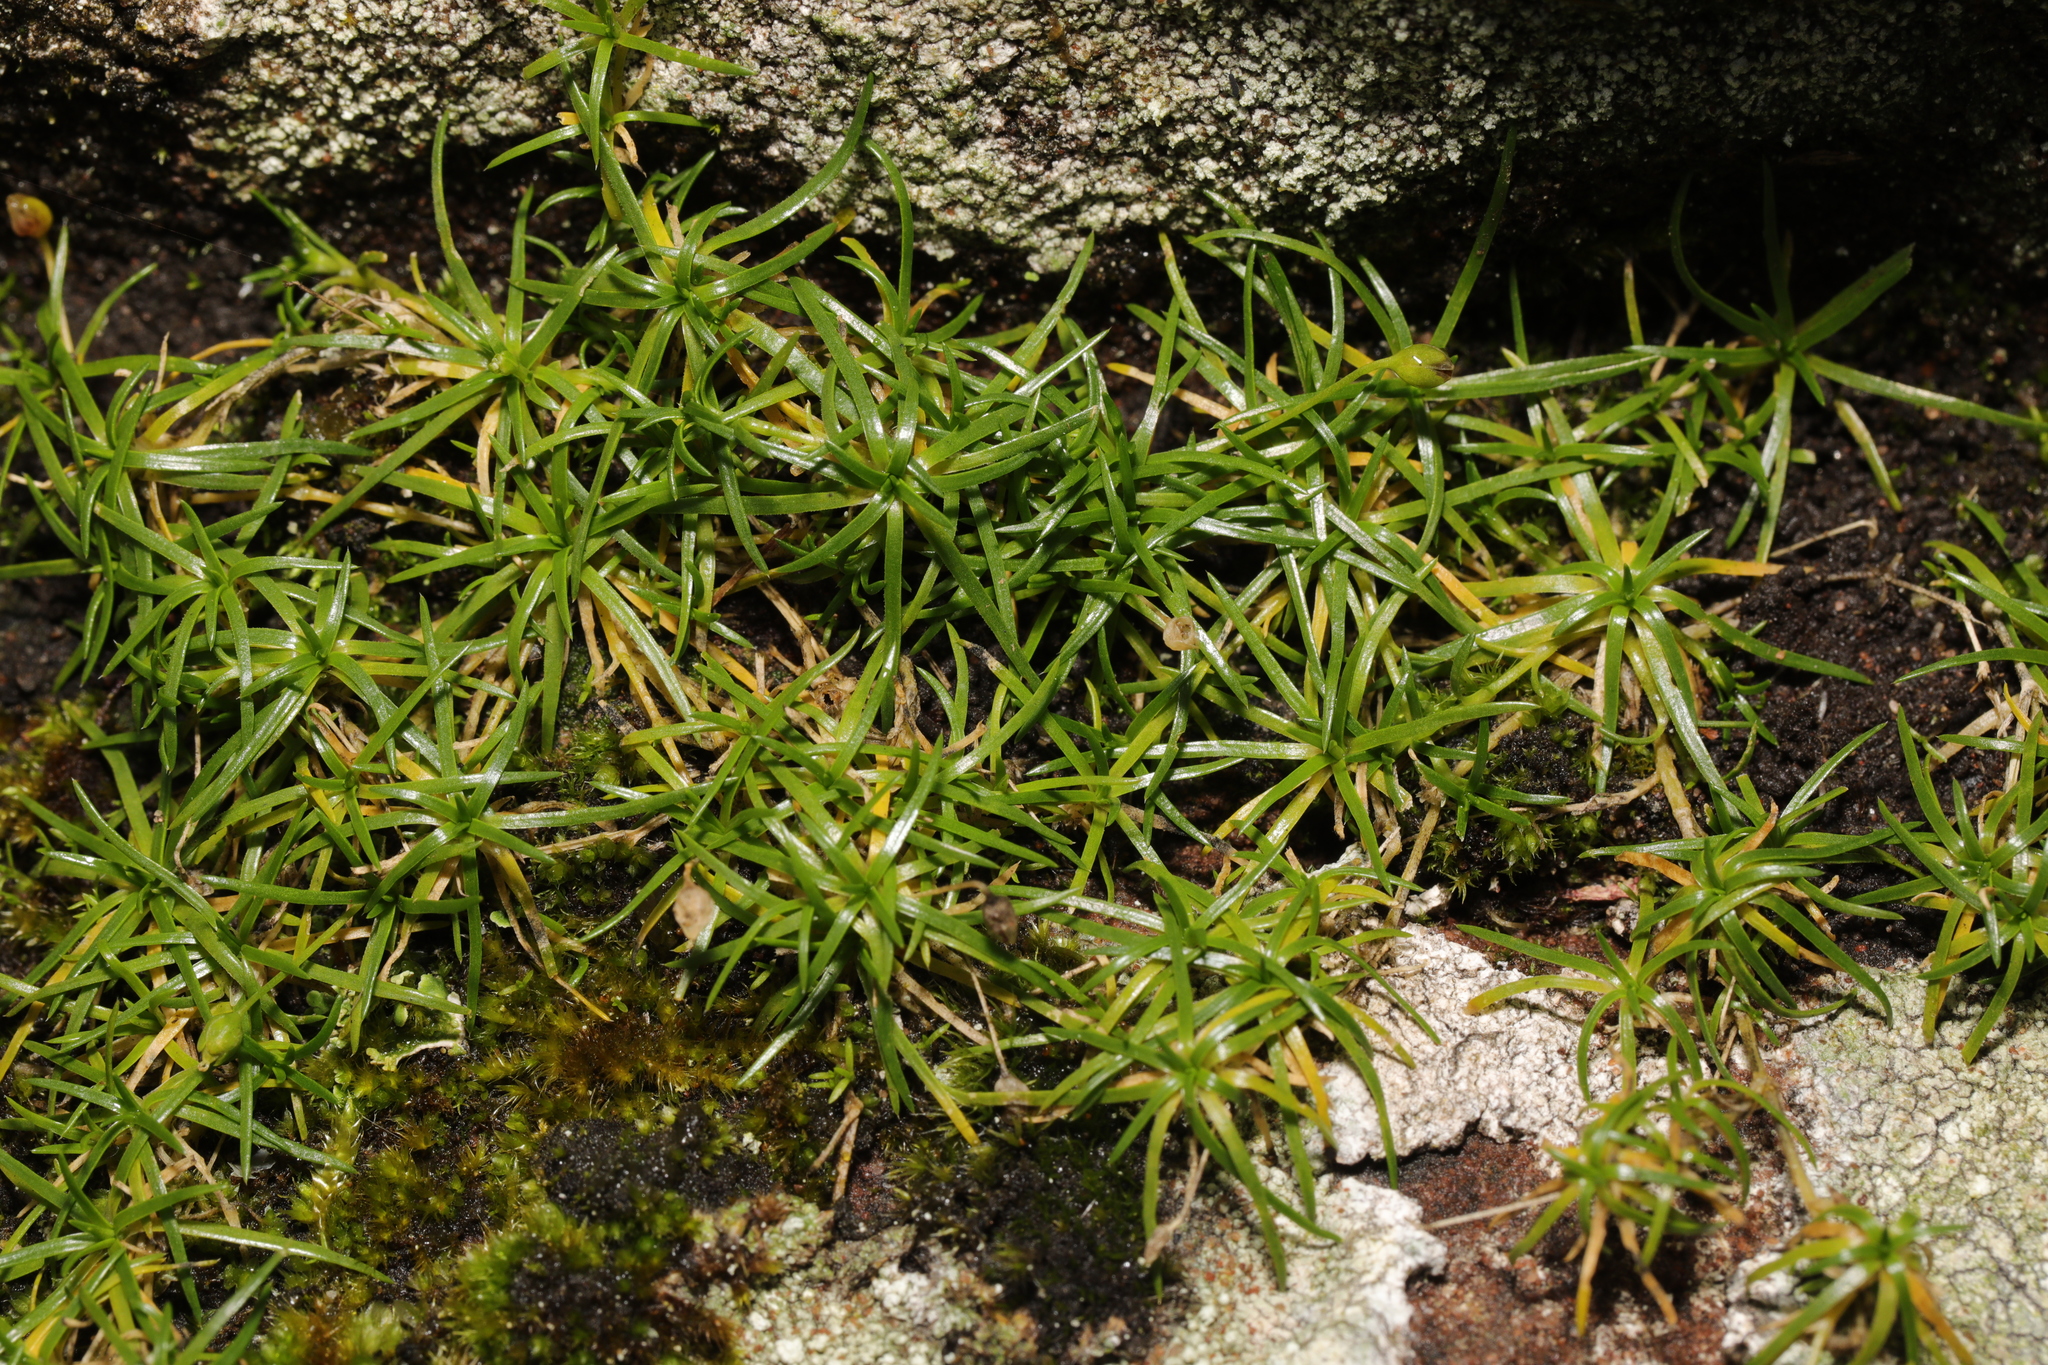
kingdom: Plantae
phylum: Tracheophyta
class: Magnoliopsida
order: Caryophyllales
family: Caryophyllaceae
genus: Sagina
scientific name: Sagina procumbens
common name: Procumbent pearlwort
